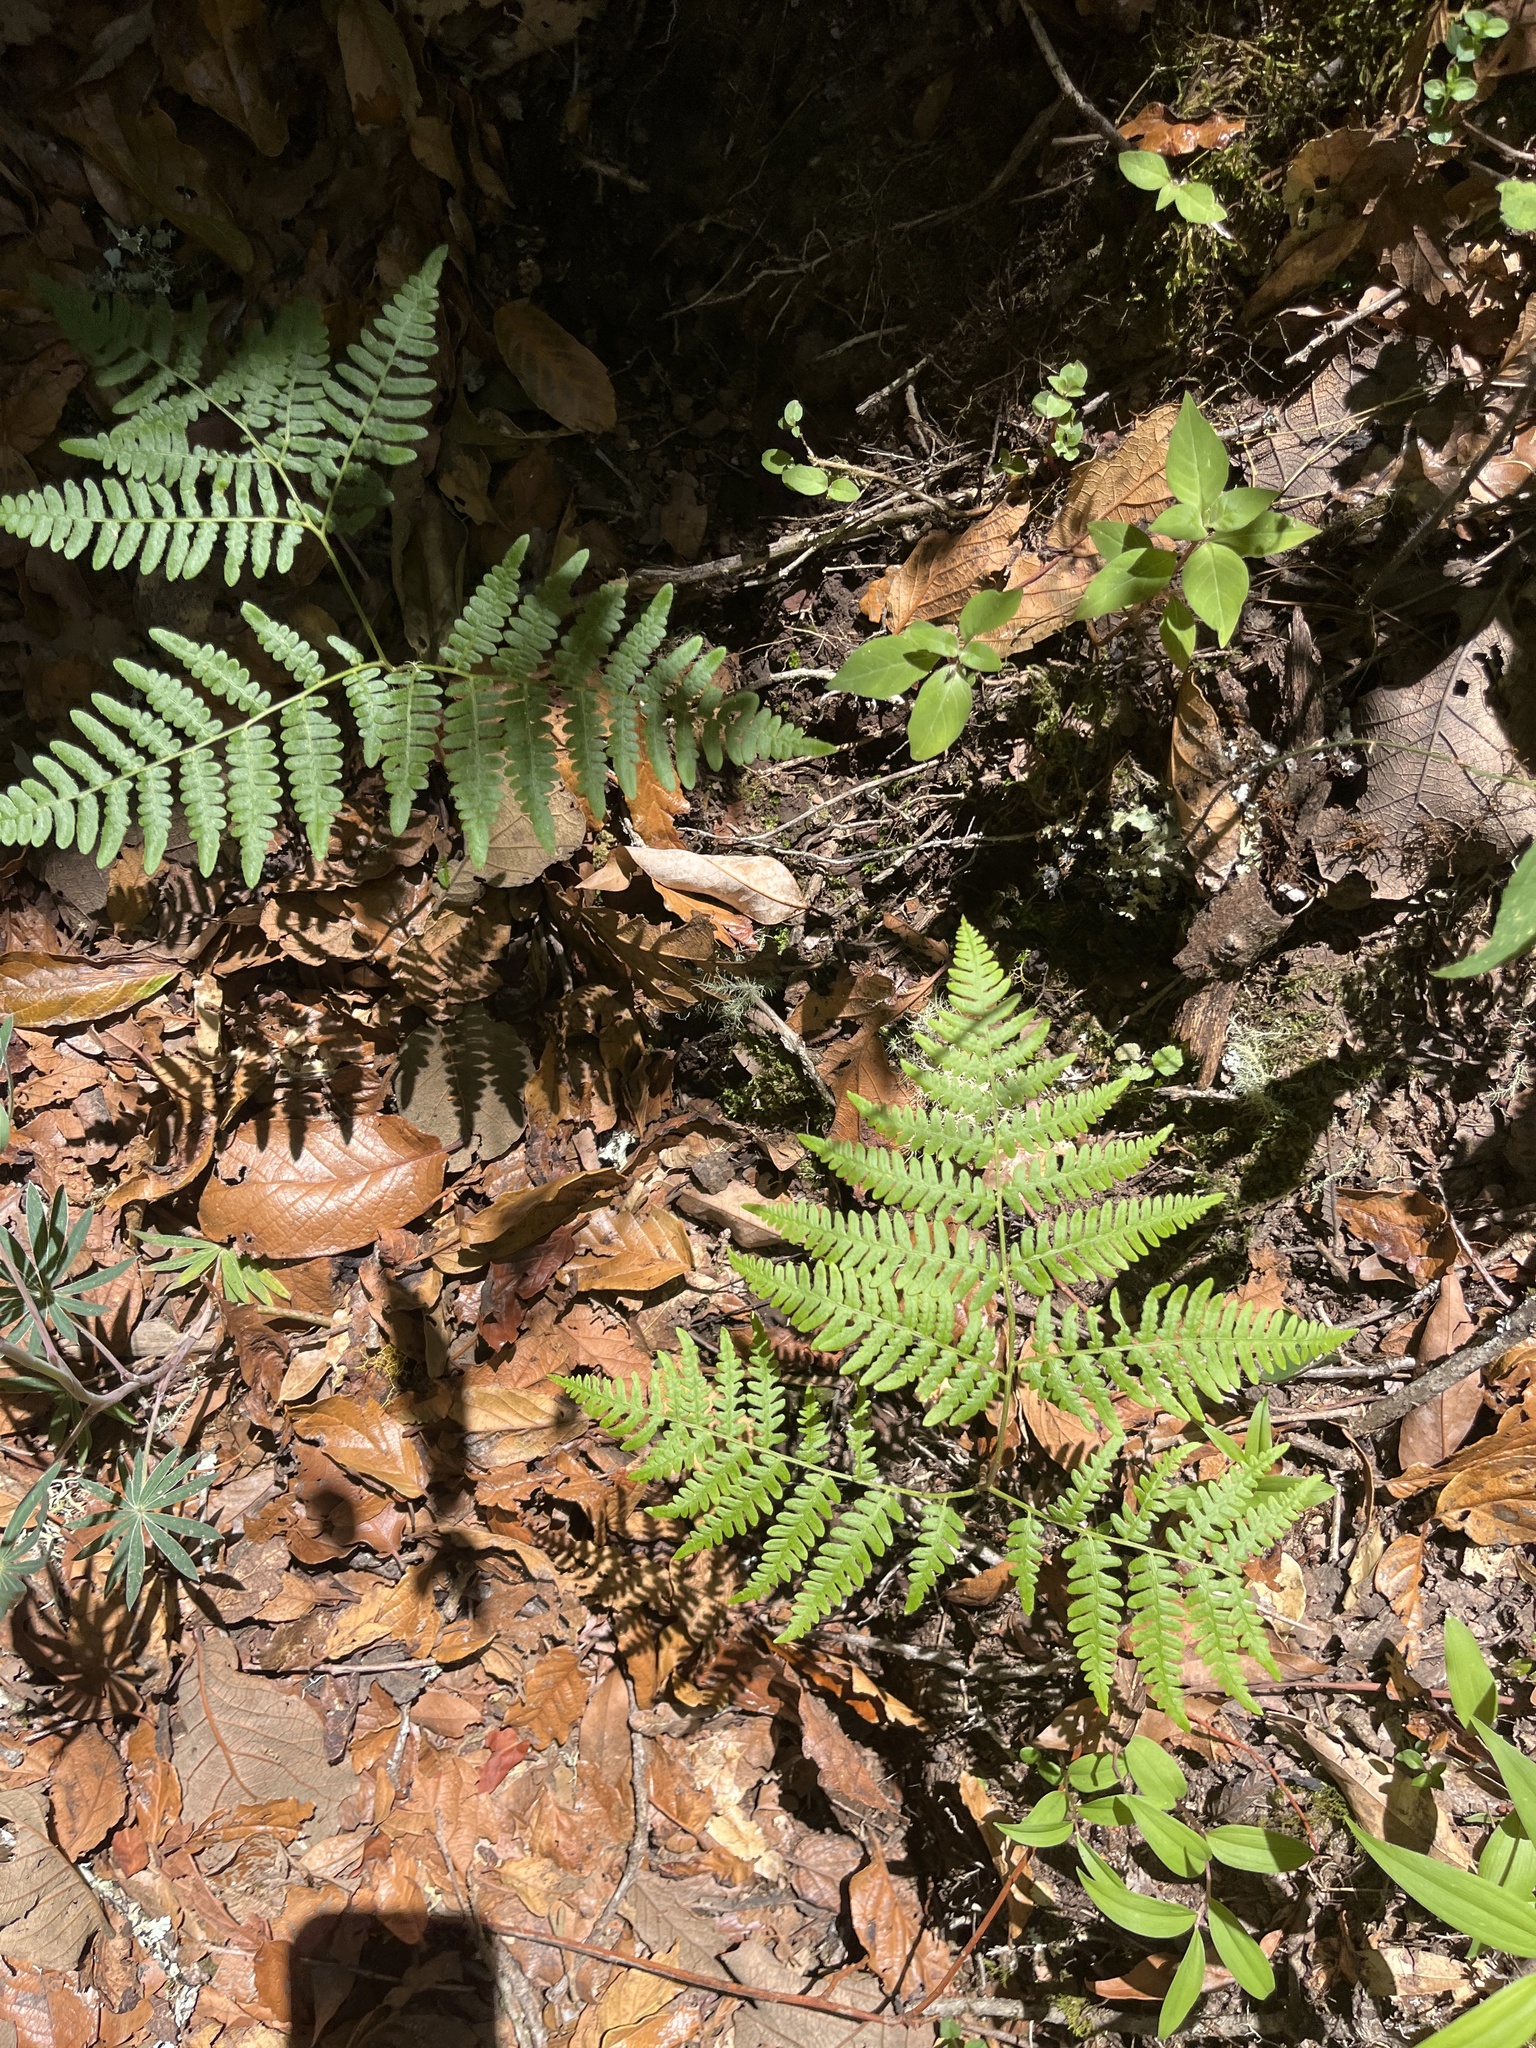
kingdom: Plantae
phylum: Tracheophyta
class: Polypodiopsida
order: Polypodiales
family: Dennstaedtiaceae
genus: Pteridium
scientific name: Pteridium aquilinum
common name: Bracken
